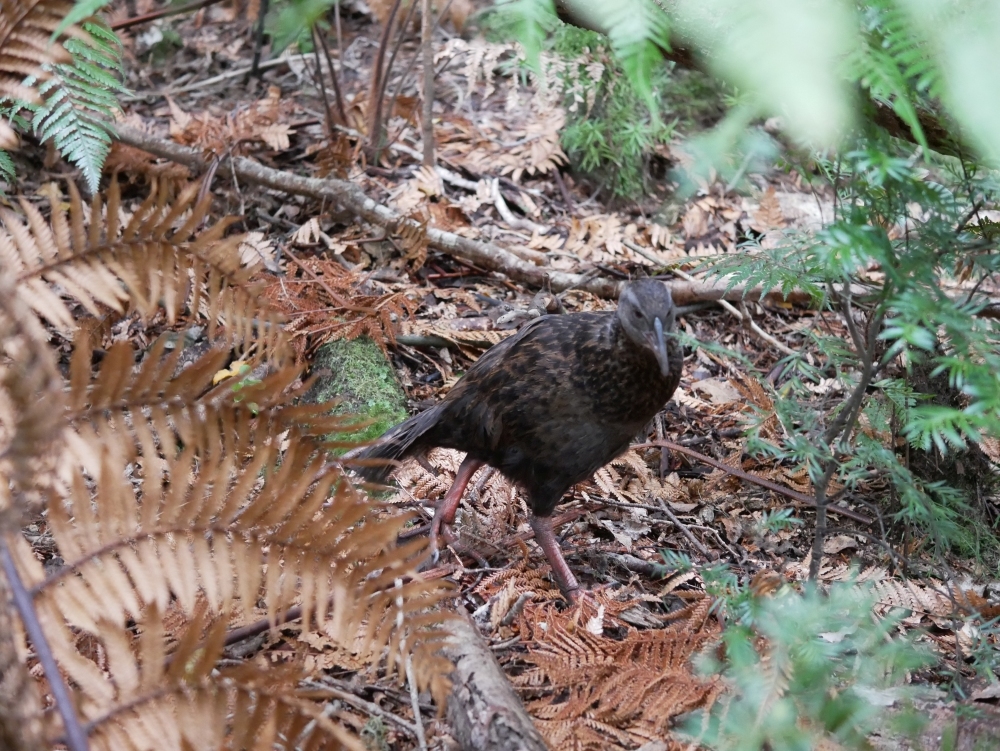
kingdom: Animalia
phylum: Chordata
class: Aves
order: Gruiformes
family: Rallidae
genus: Gallirallus
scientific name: Gallirallus australis
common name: Weka
